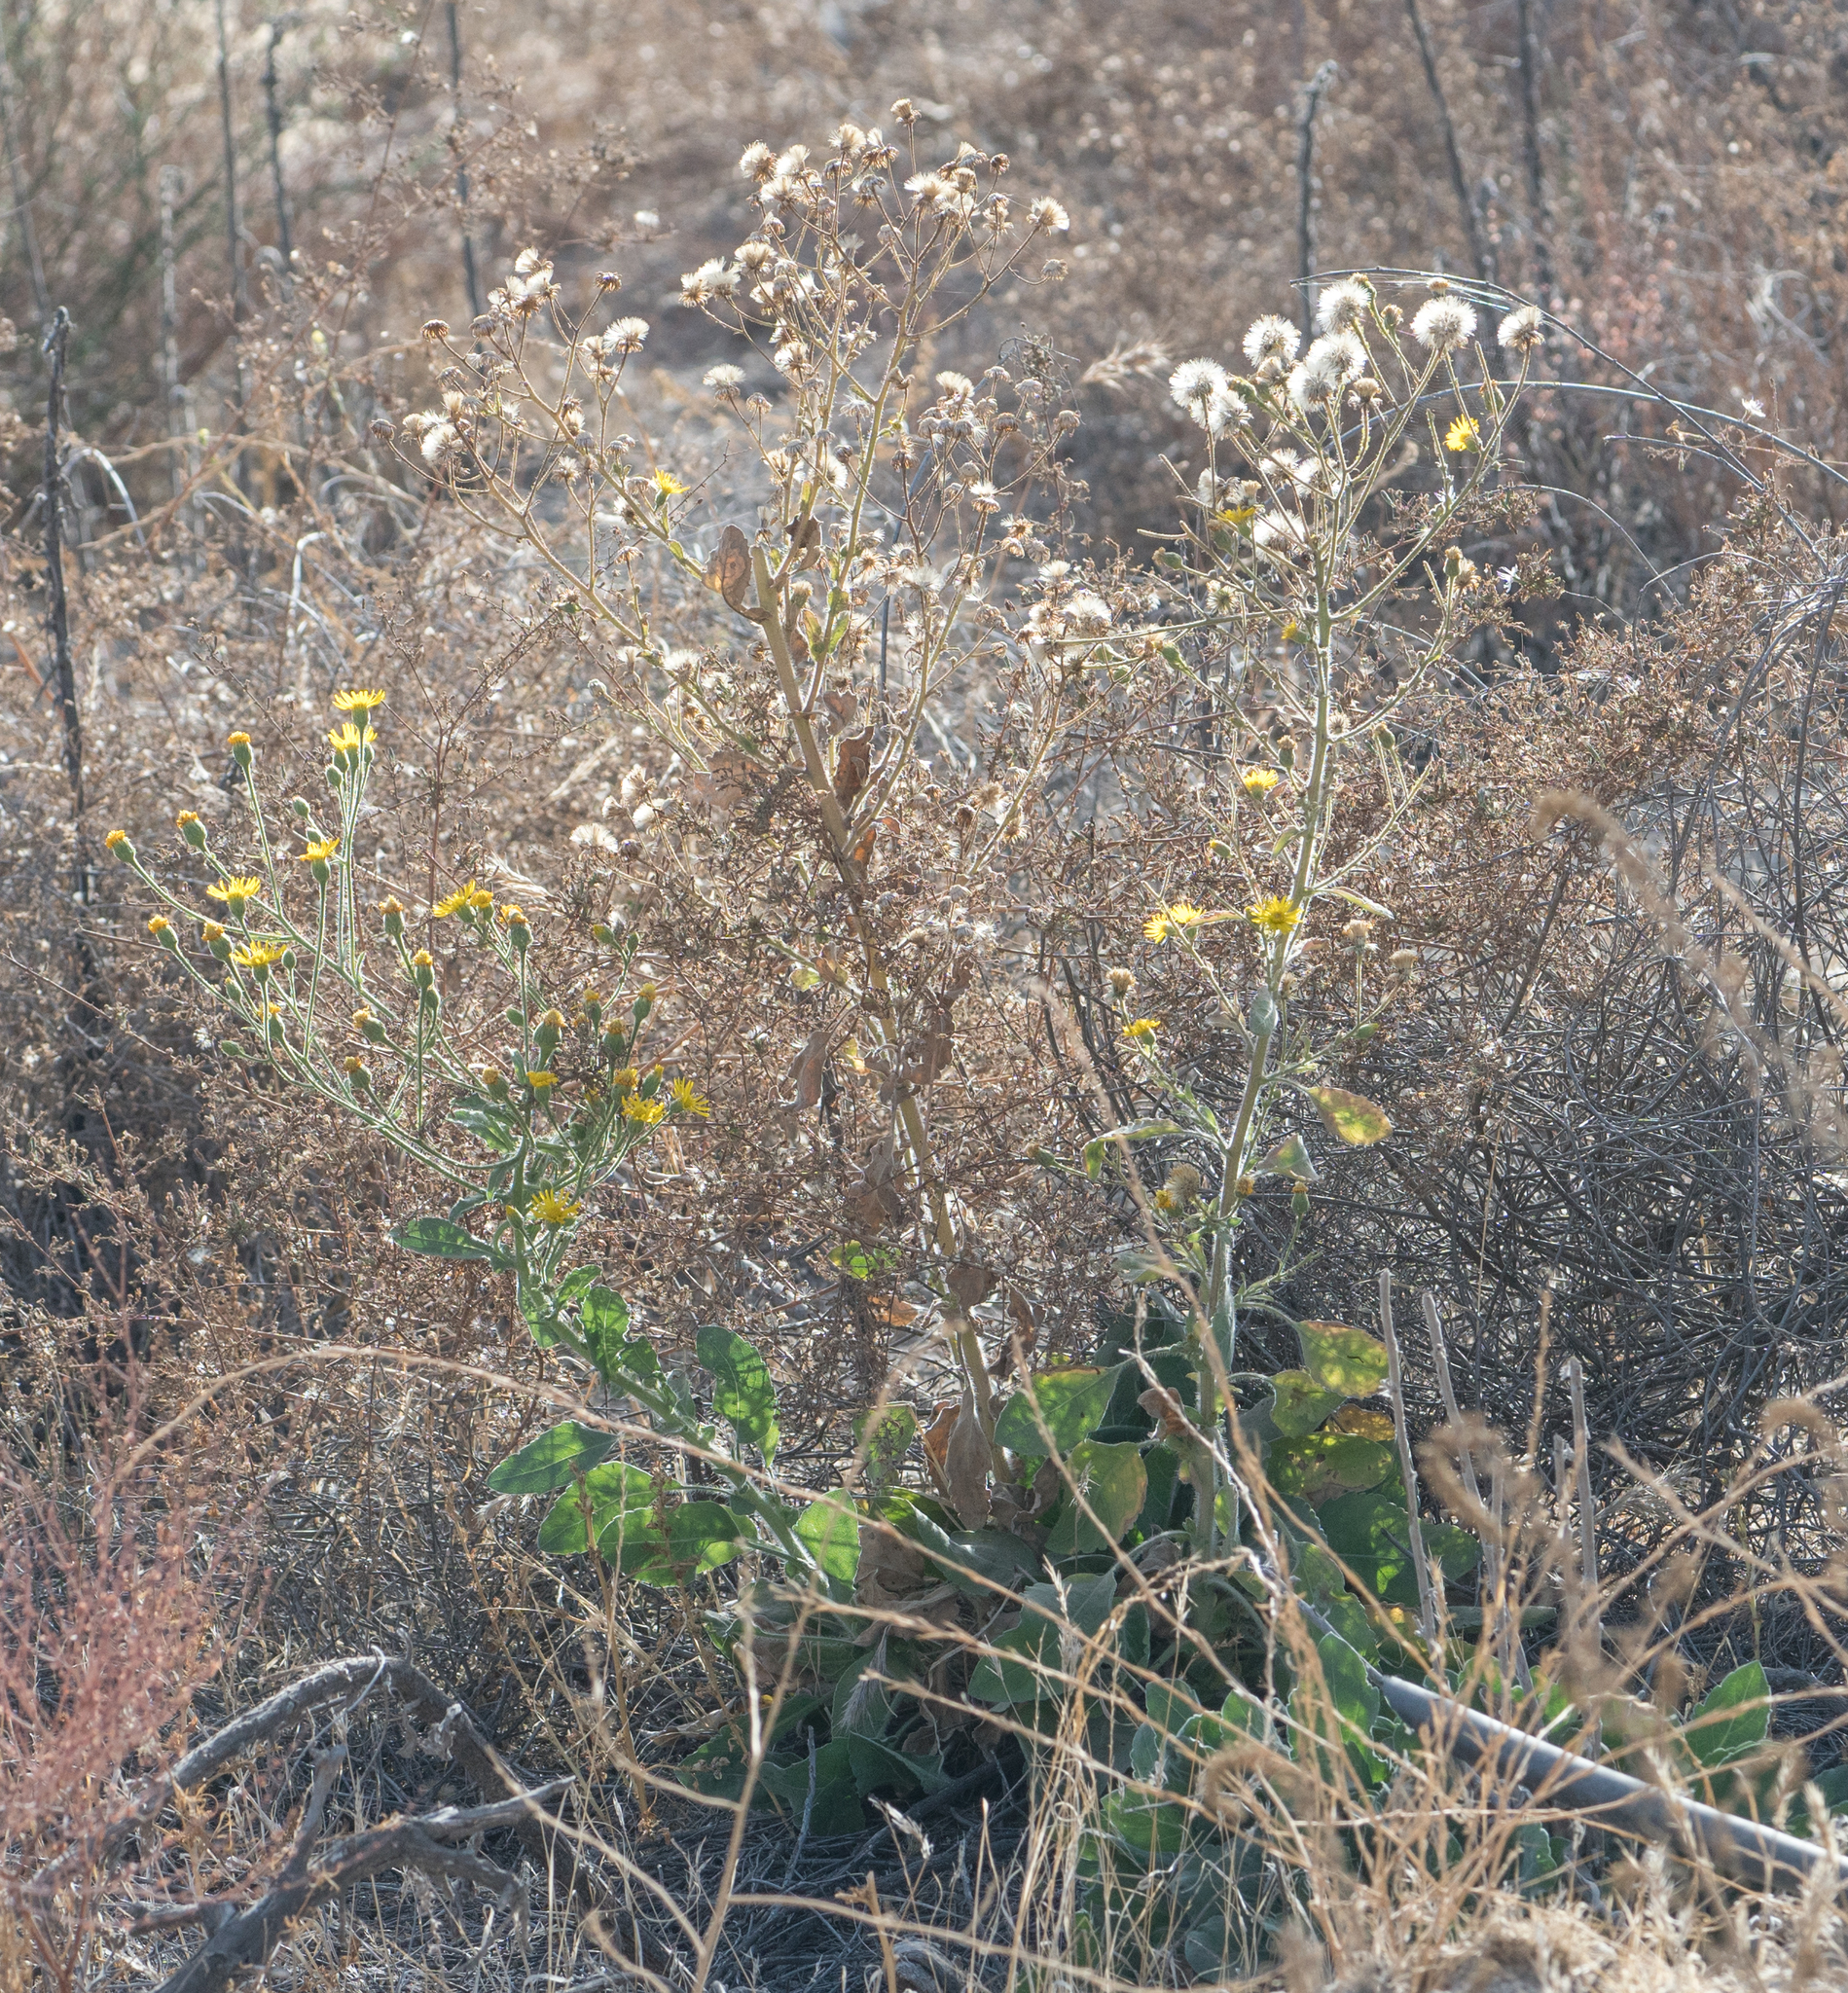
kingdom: Plantae
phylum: Tracheophyta
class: Magnoliopsida
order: Asterales
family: Asteraceae
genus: Heterotheca
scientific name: Heterotheca grandiflora
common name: Telegraphweed
